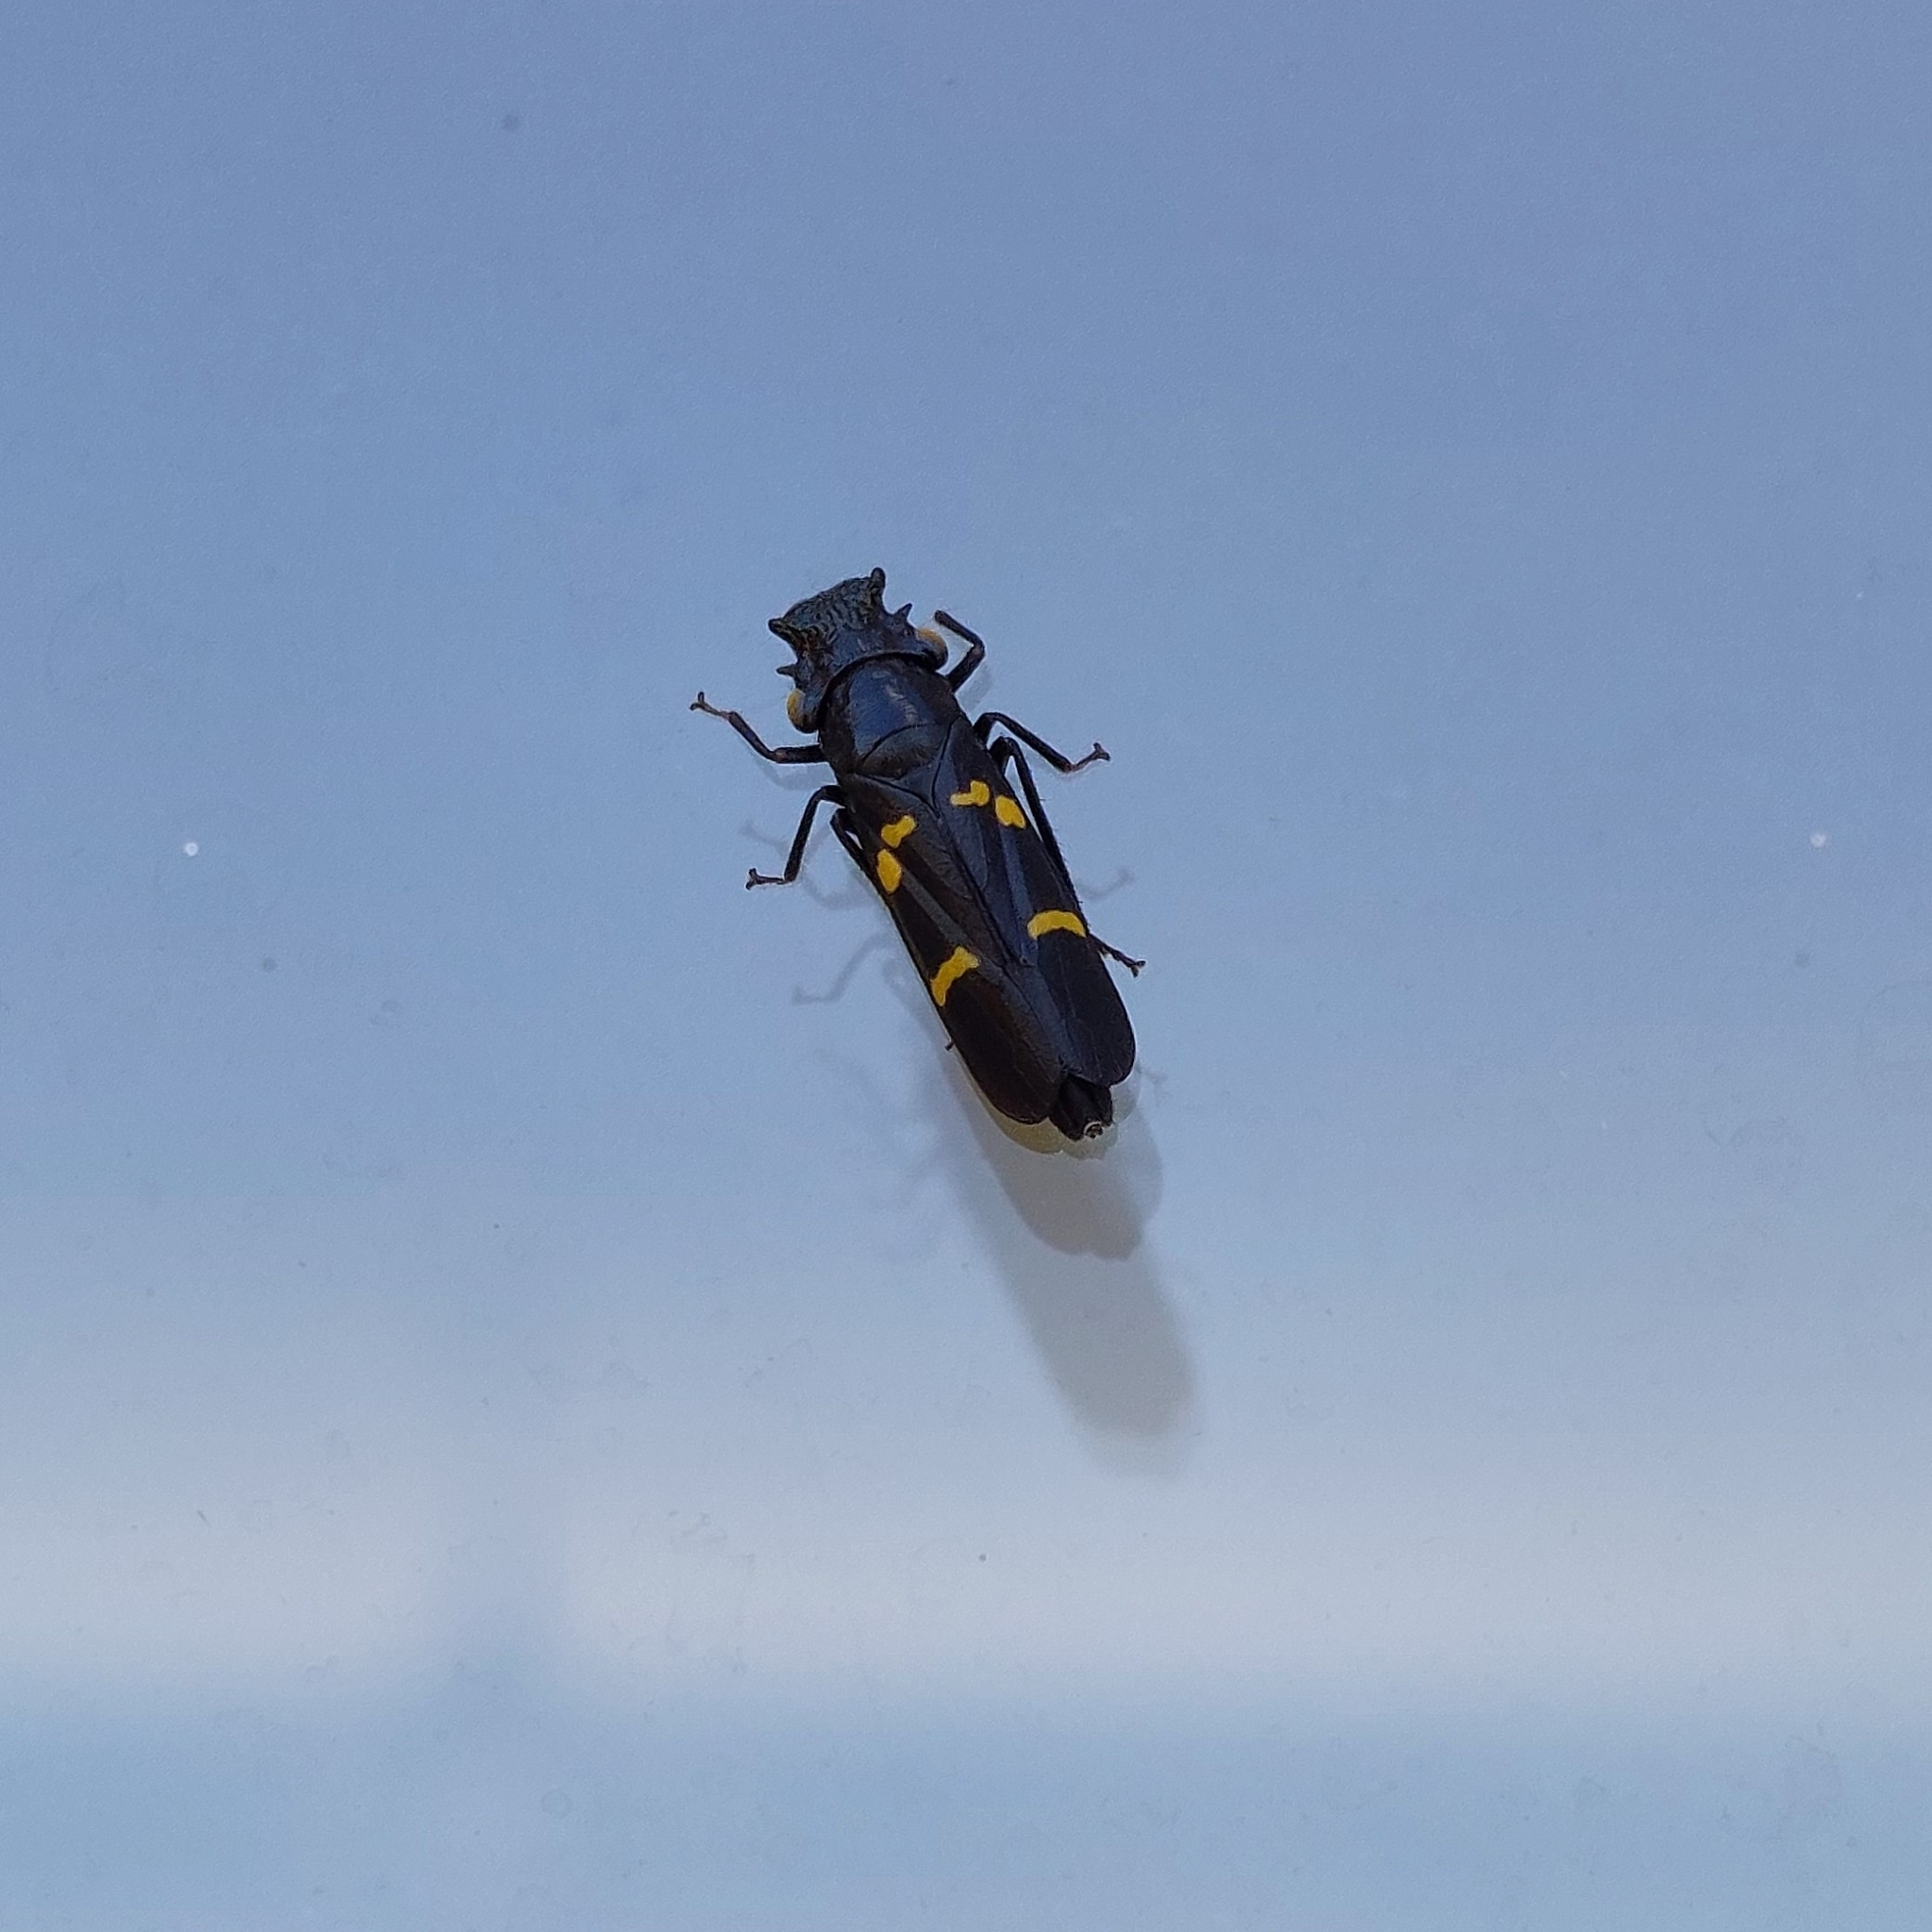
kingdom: Animalia
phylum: Arthropoda
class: Insecta
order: Hemiptera
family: Cicadellidae
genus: Ochrostacta
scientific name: Ochrostacta diadema
